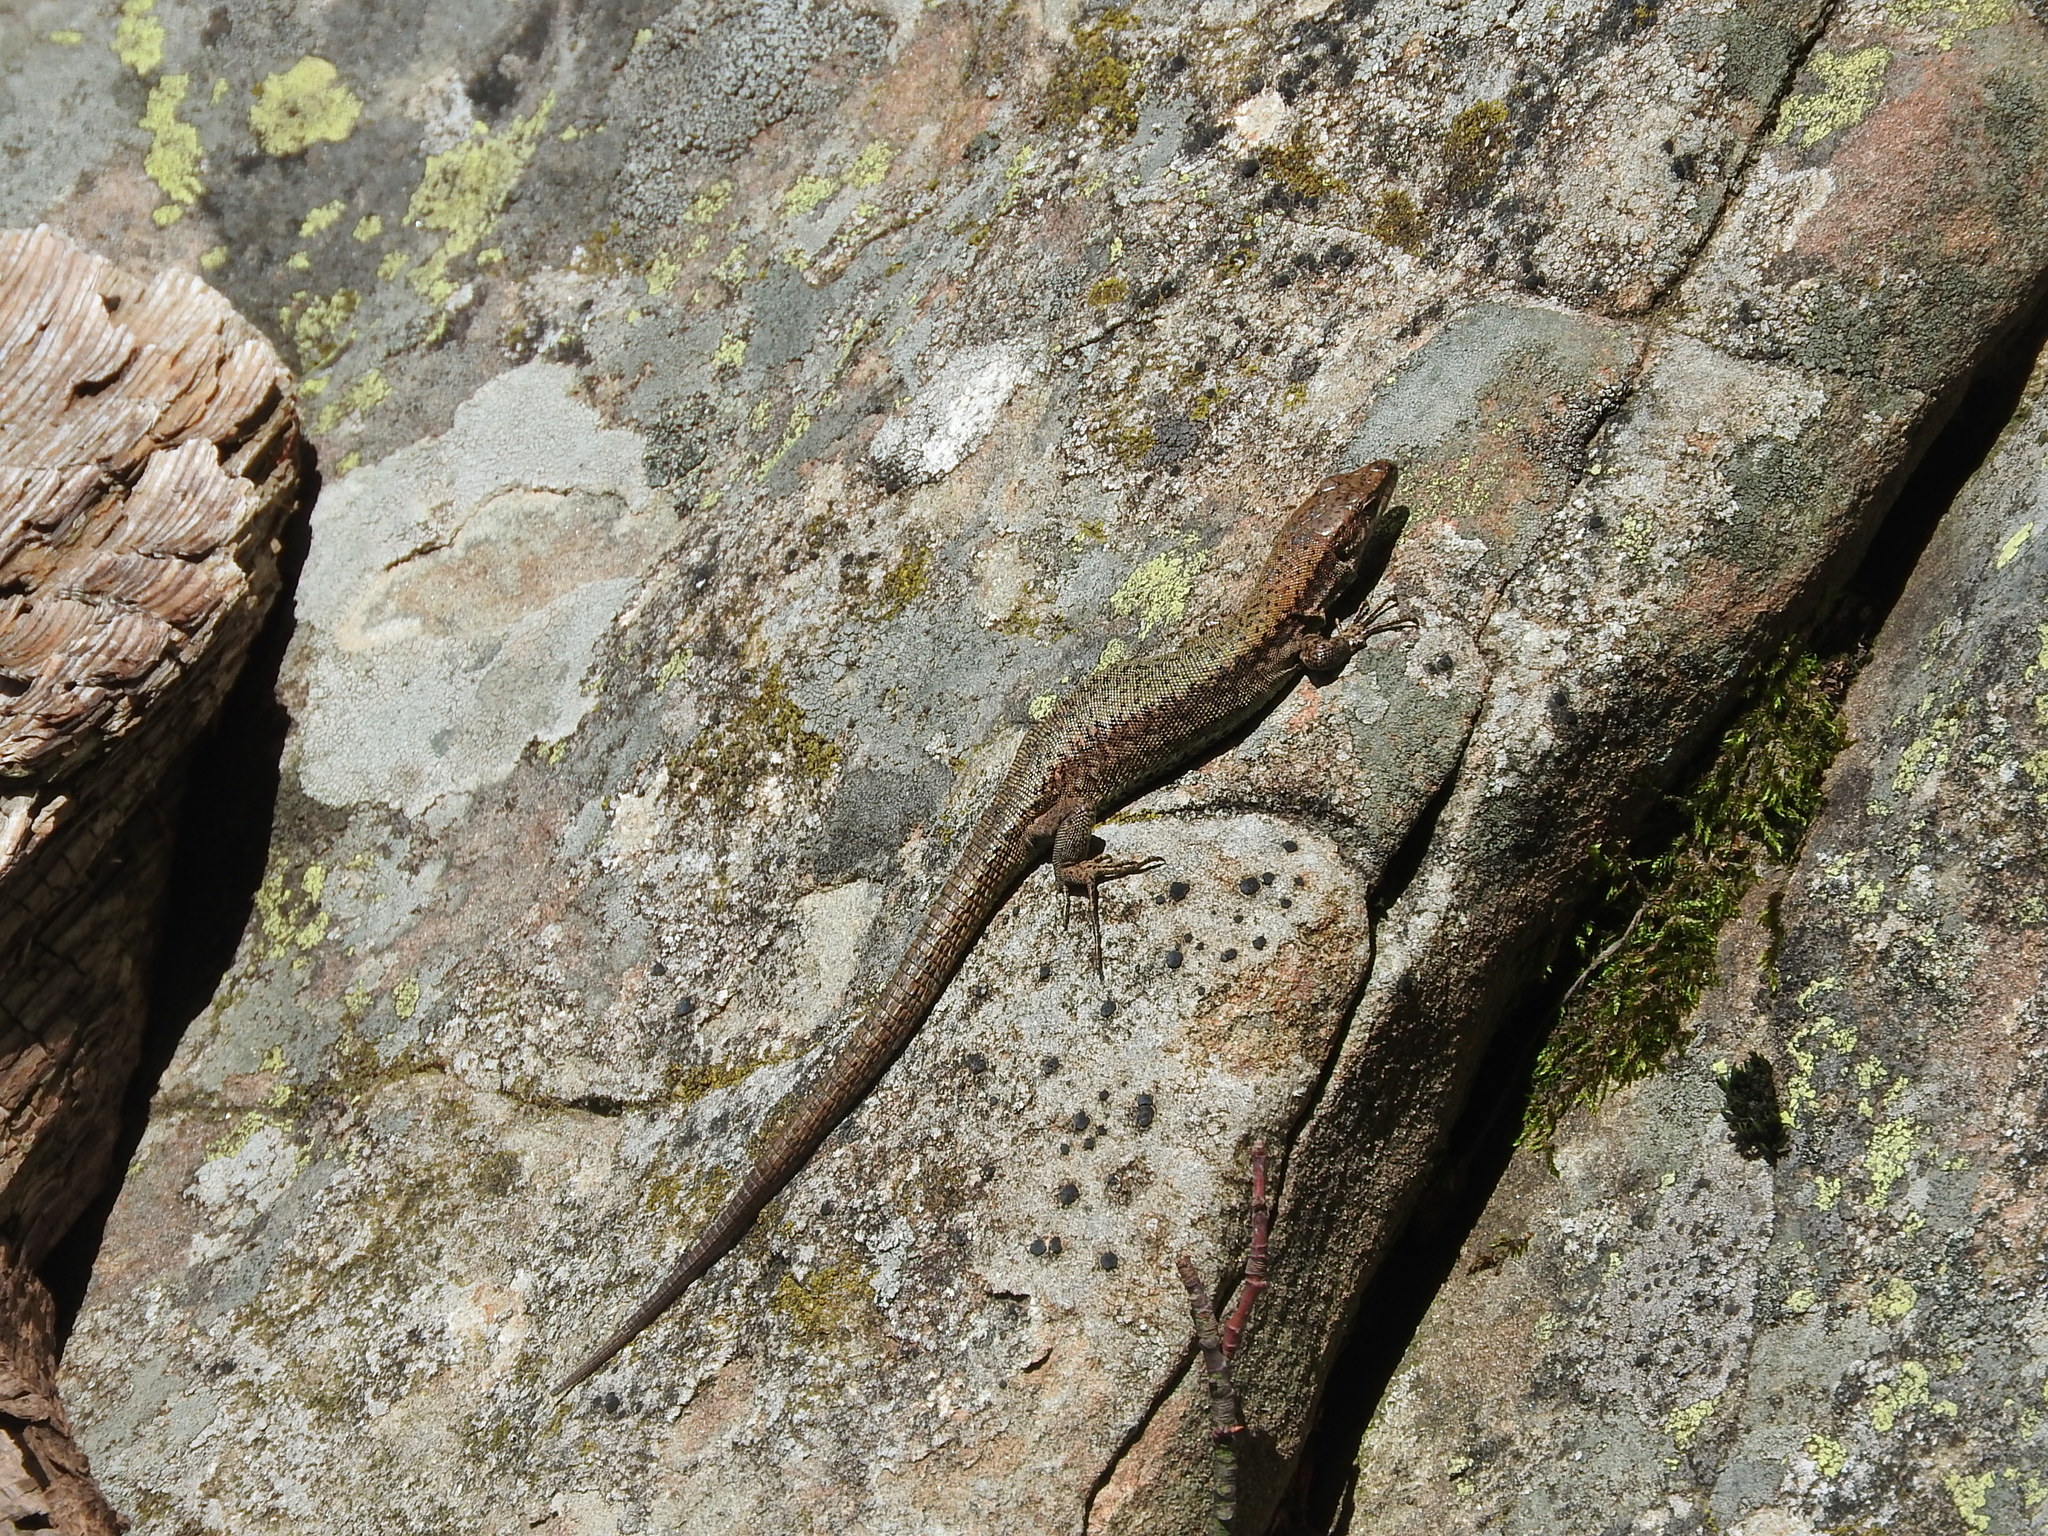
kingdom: Animalia
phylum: Chordata
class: Squamata
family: Lacertidae
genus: Podarcis
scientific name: Podarcis muralis
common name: Common wall lizard
